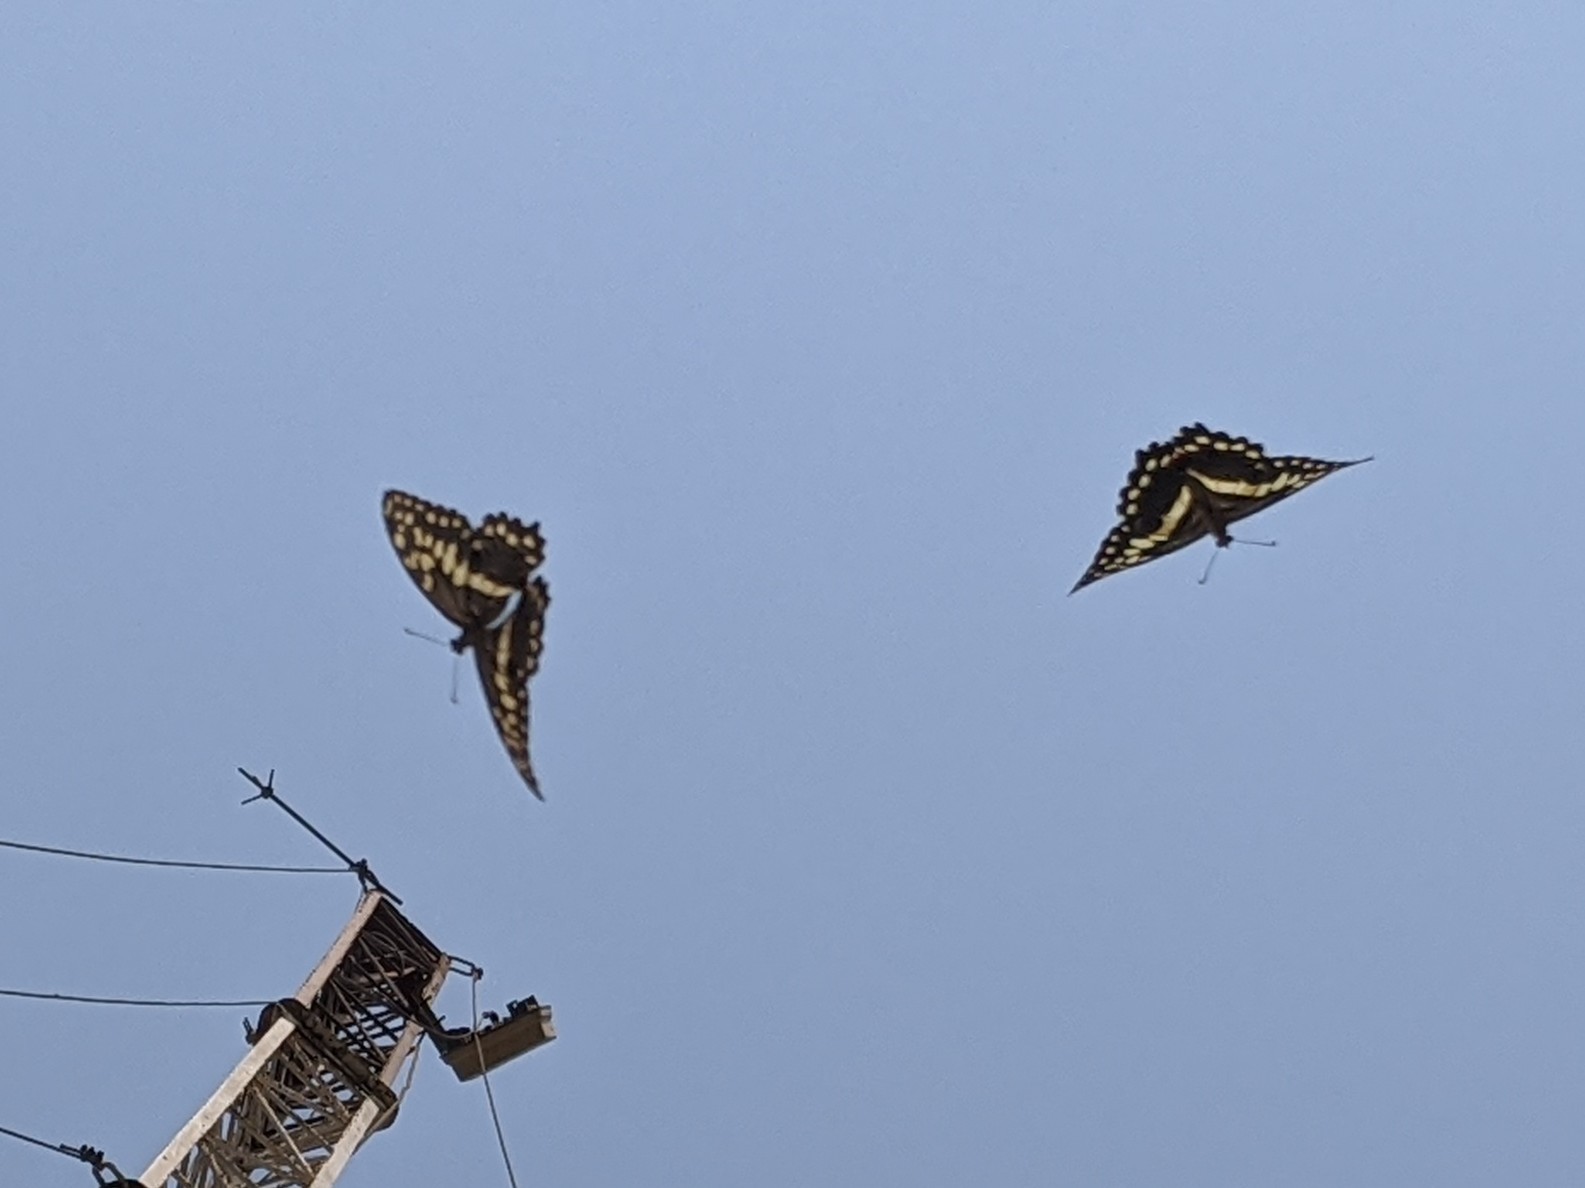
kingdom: Animalia
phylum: Arthropoda
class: Insecta
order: Lepidoptera
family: Papilionidae
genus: Papilio
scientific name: Papilio demodocus
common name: Christmas butterfly
